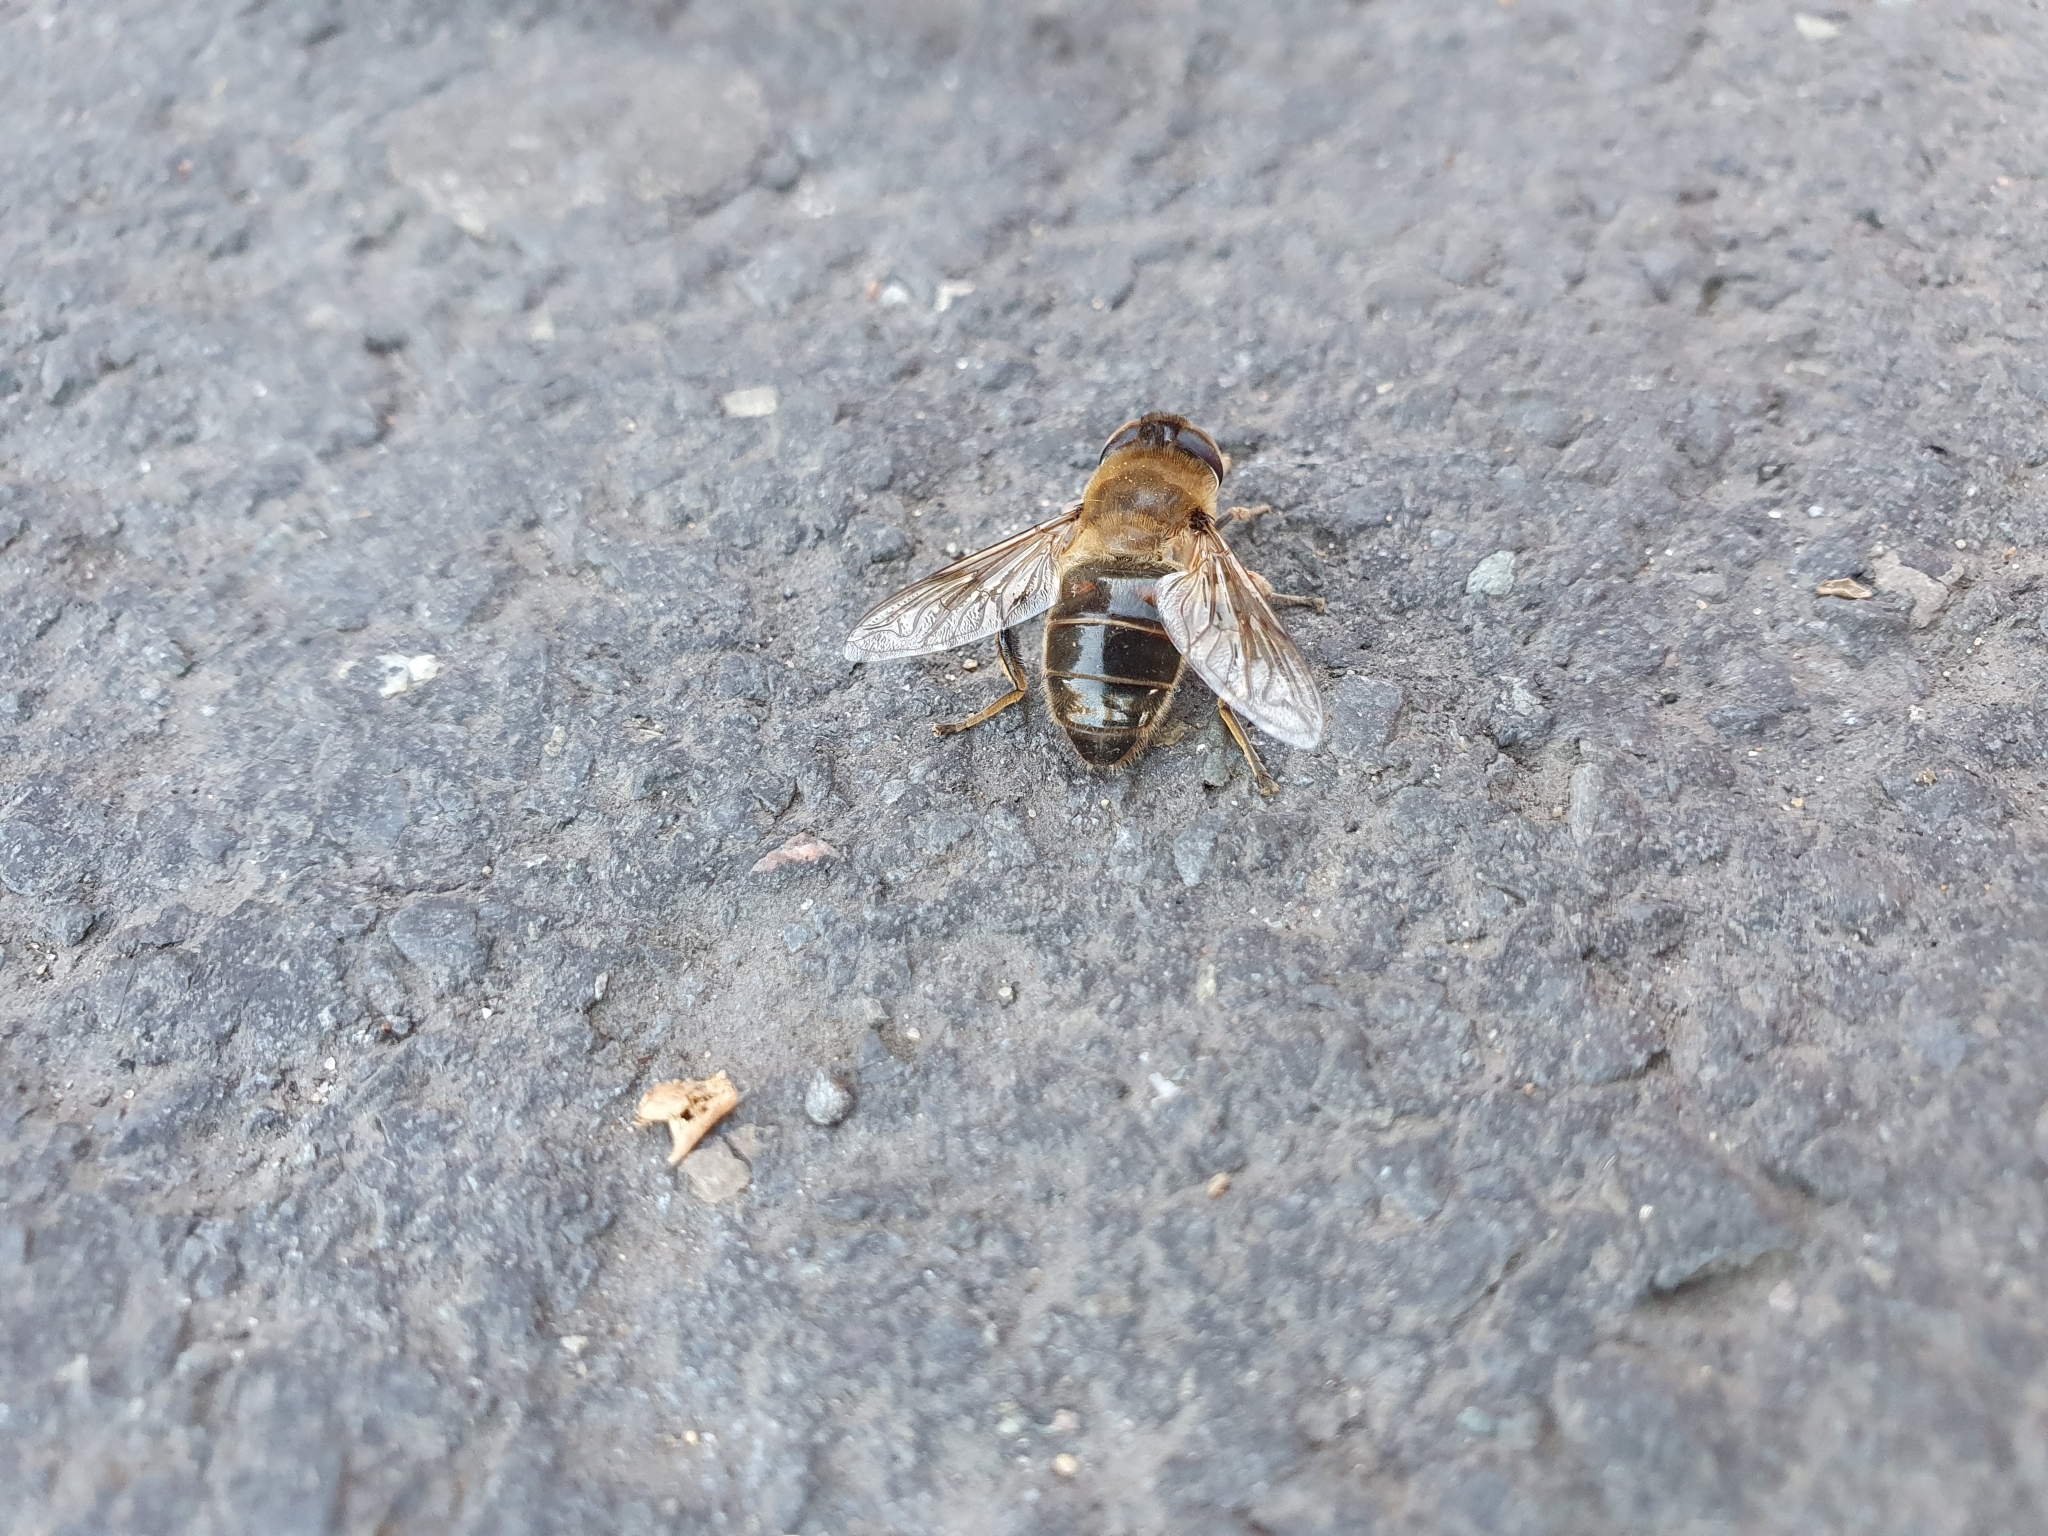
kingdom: Animalia
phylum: Arthropoda
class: Insecta
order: Diptera
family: Syrphidae
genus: Eristalis
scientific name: Eristalis tenax
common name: Drone fly
